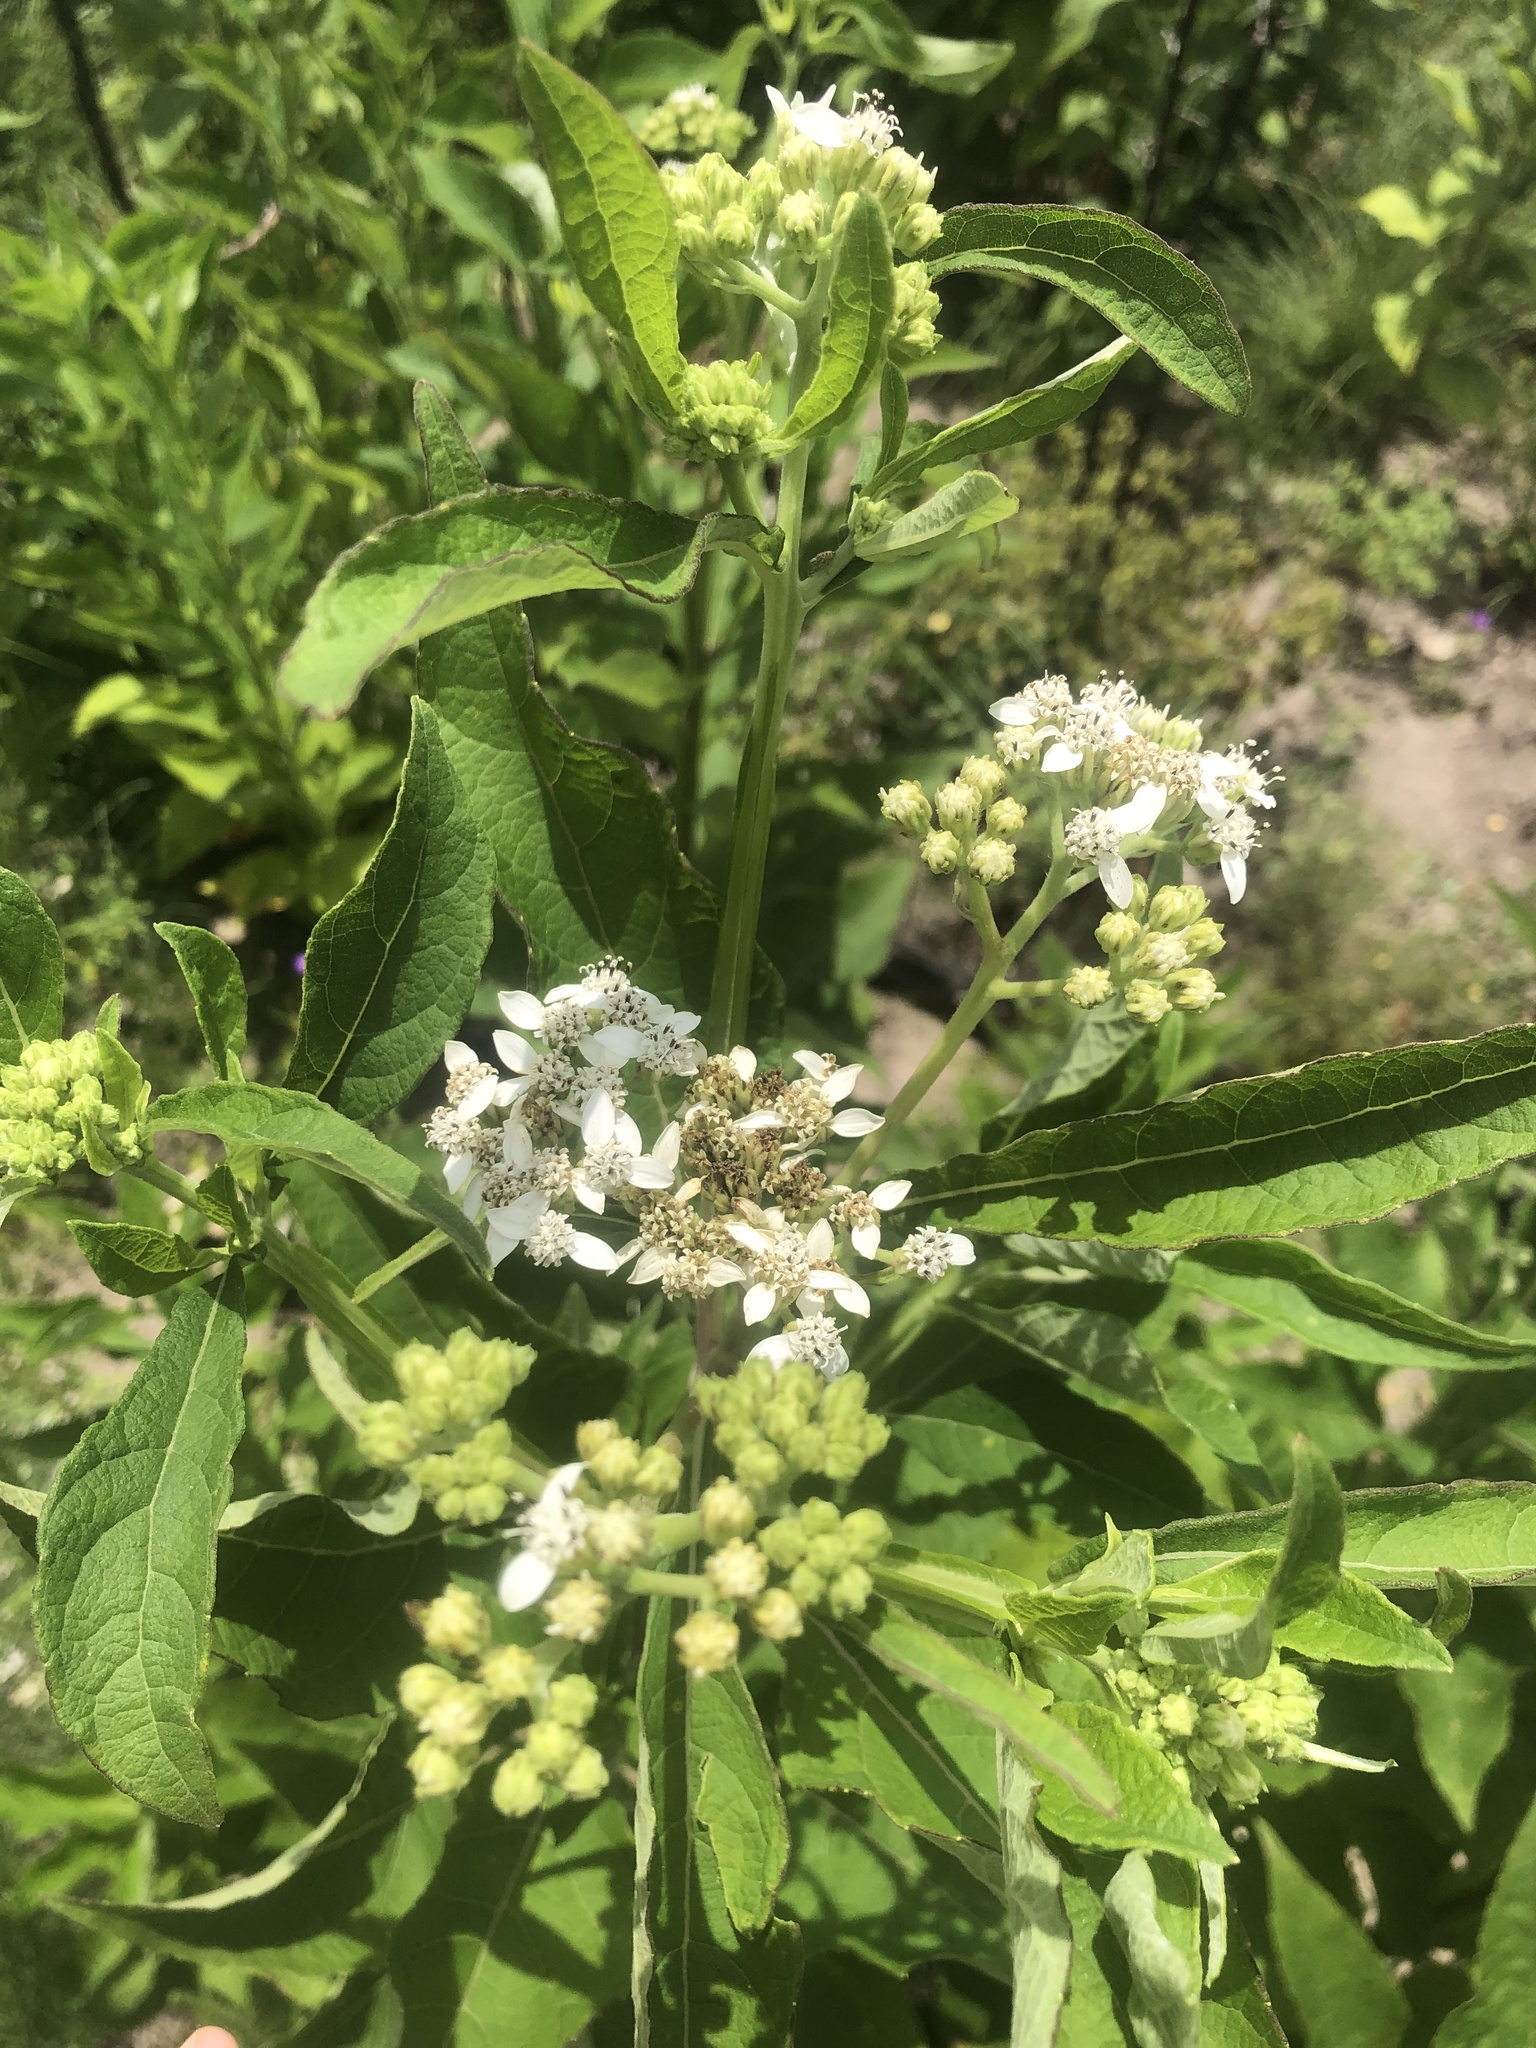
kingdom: Plantae
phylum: Tracheophyta
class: Magnoliopsida
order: Asterales
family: Asteraceae
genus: Verbesina
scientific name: Verbesina virginica
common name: Frostweed
